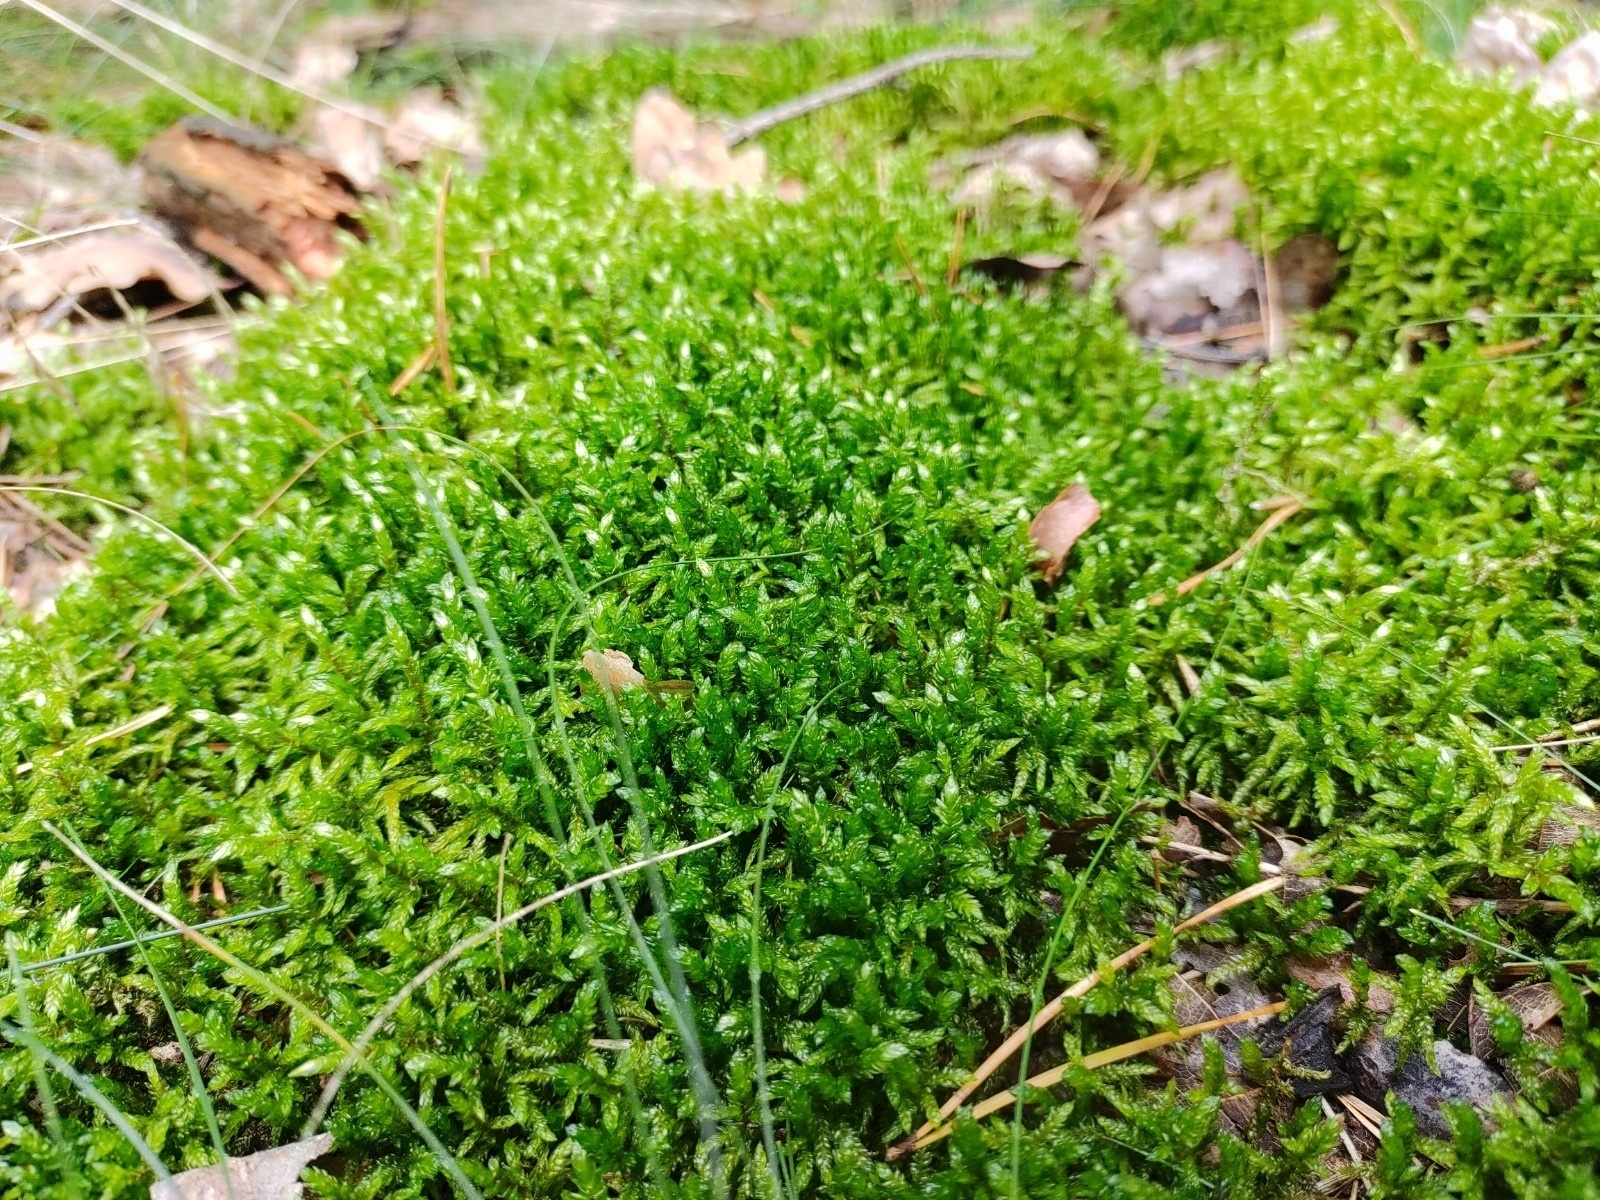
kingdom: Plantae
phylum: Bryophyta
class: Bryopsida
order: Hypnales
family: Hylocomiaceae
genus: Pleurozium
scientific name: Pleurozium schreberi
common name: Red-stemmed feather moss
